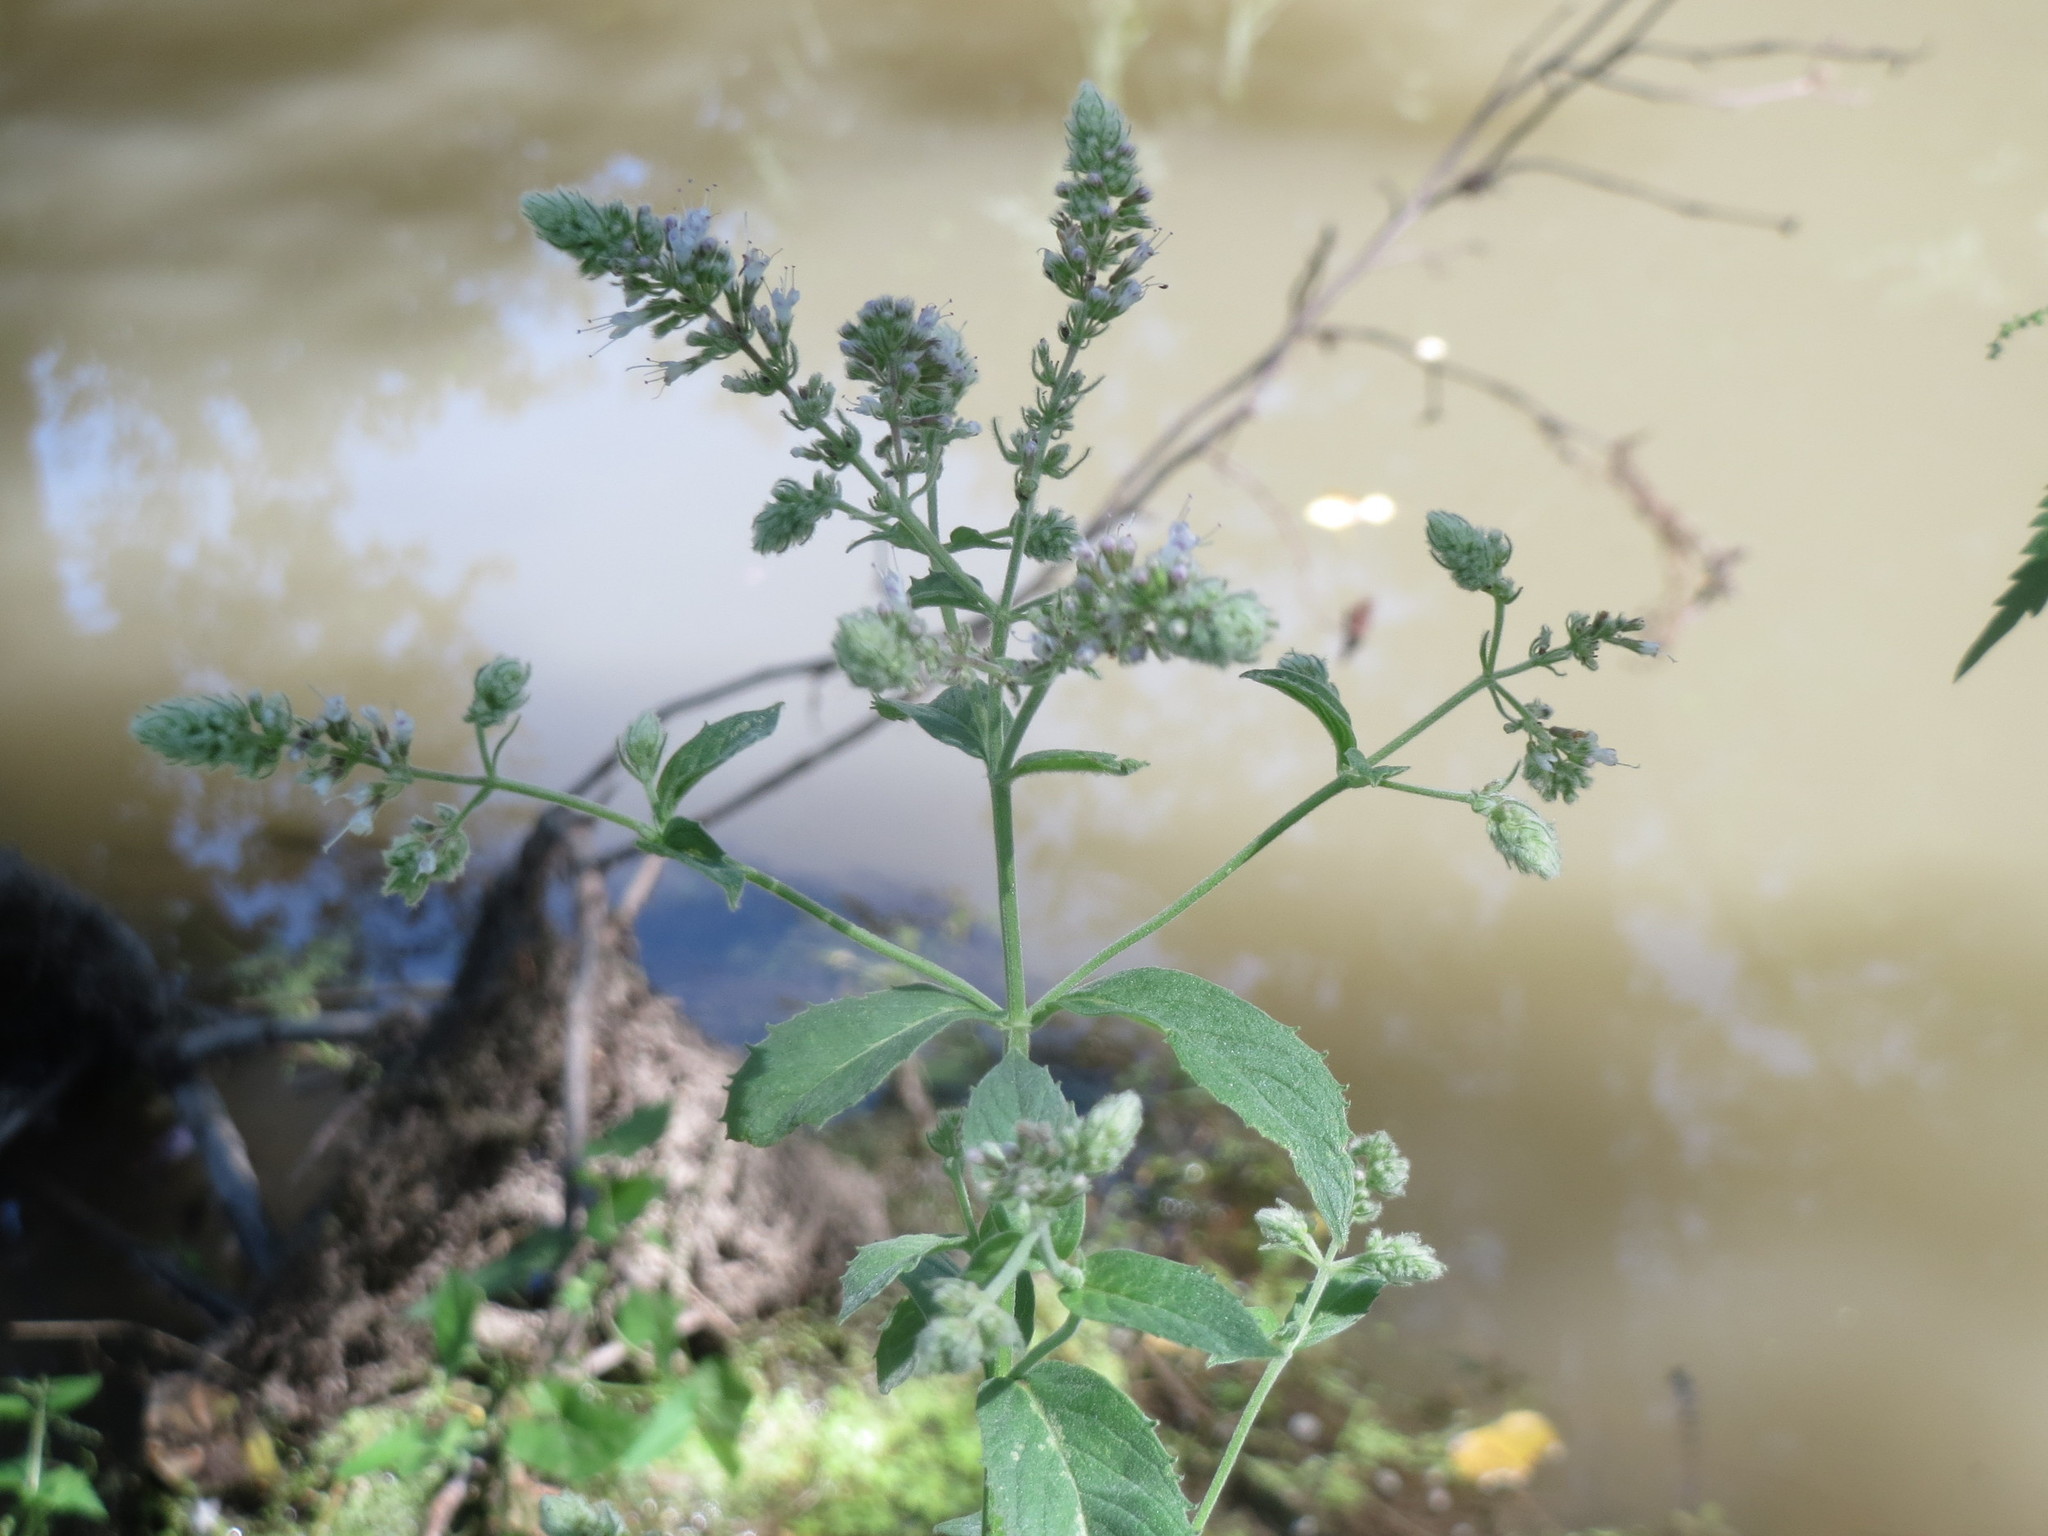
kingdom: Plantae
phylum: Tracheophyta
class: Magnoliopsida
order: Lamiales
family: Lamiaceae
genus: Mentha
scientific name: Mentha longifolia
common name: Horse mint
